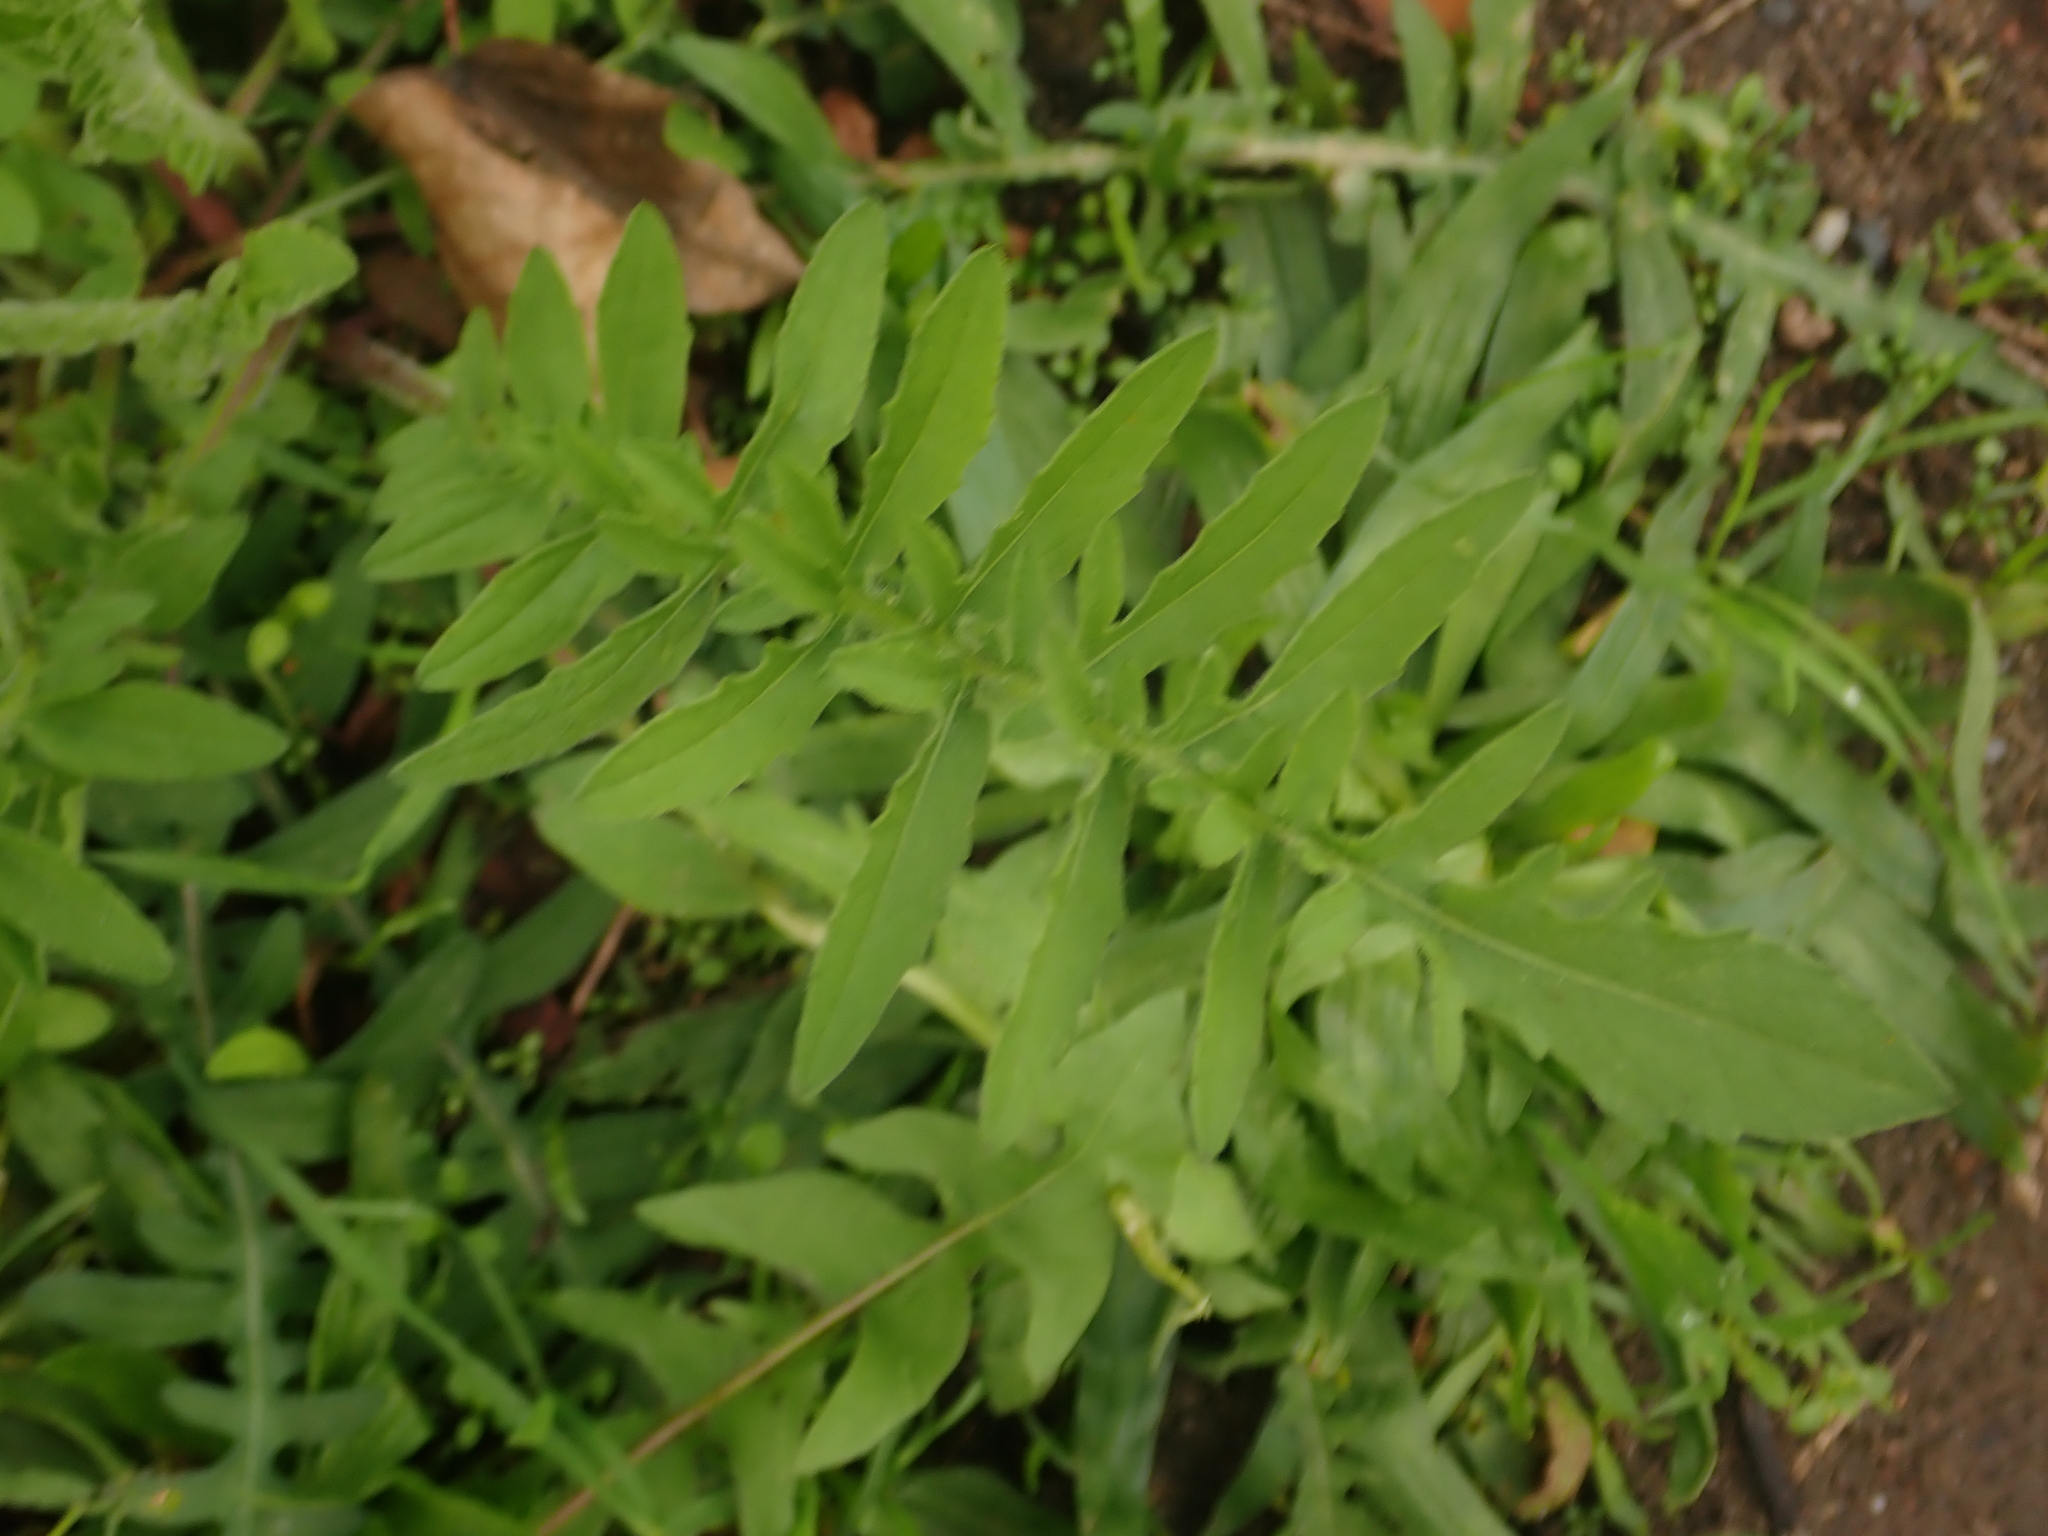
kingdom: Plantae
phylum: Tracheophyta
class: Magnoliopsida
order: Asterales
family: Asteraceae
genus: Centaurea
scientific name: Centaurea scabiosa
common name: Greater knapweed
